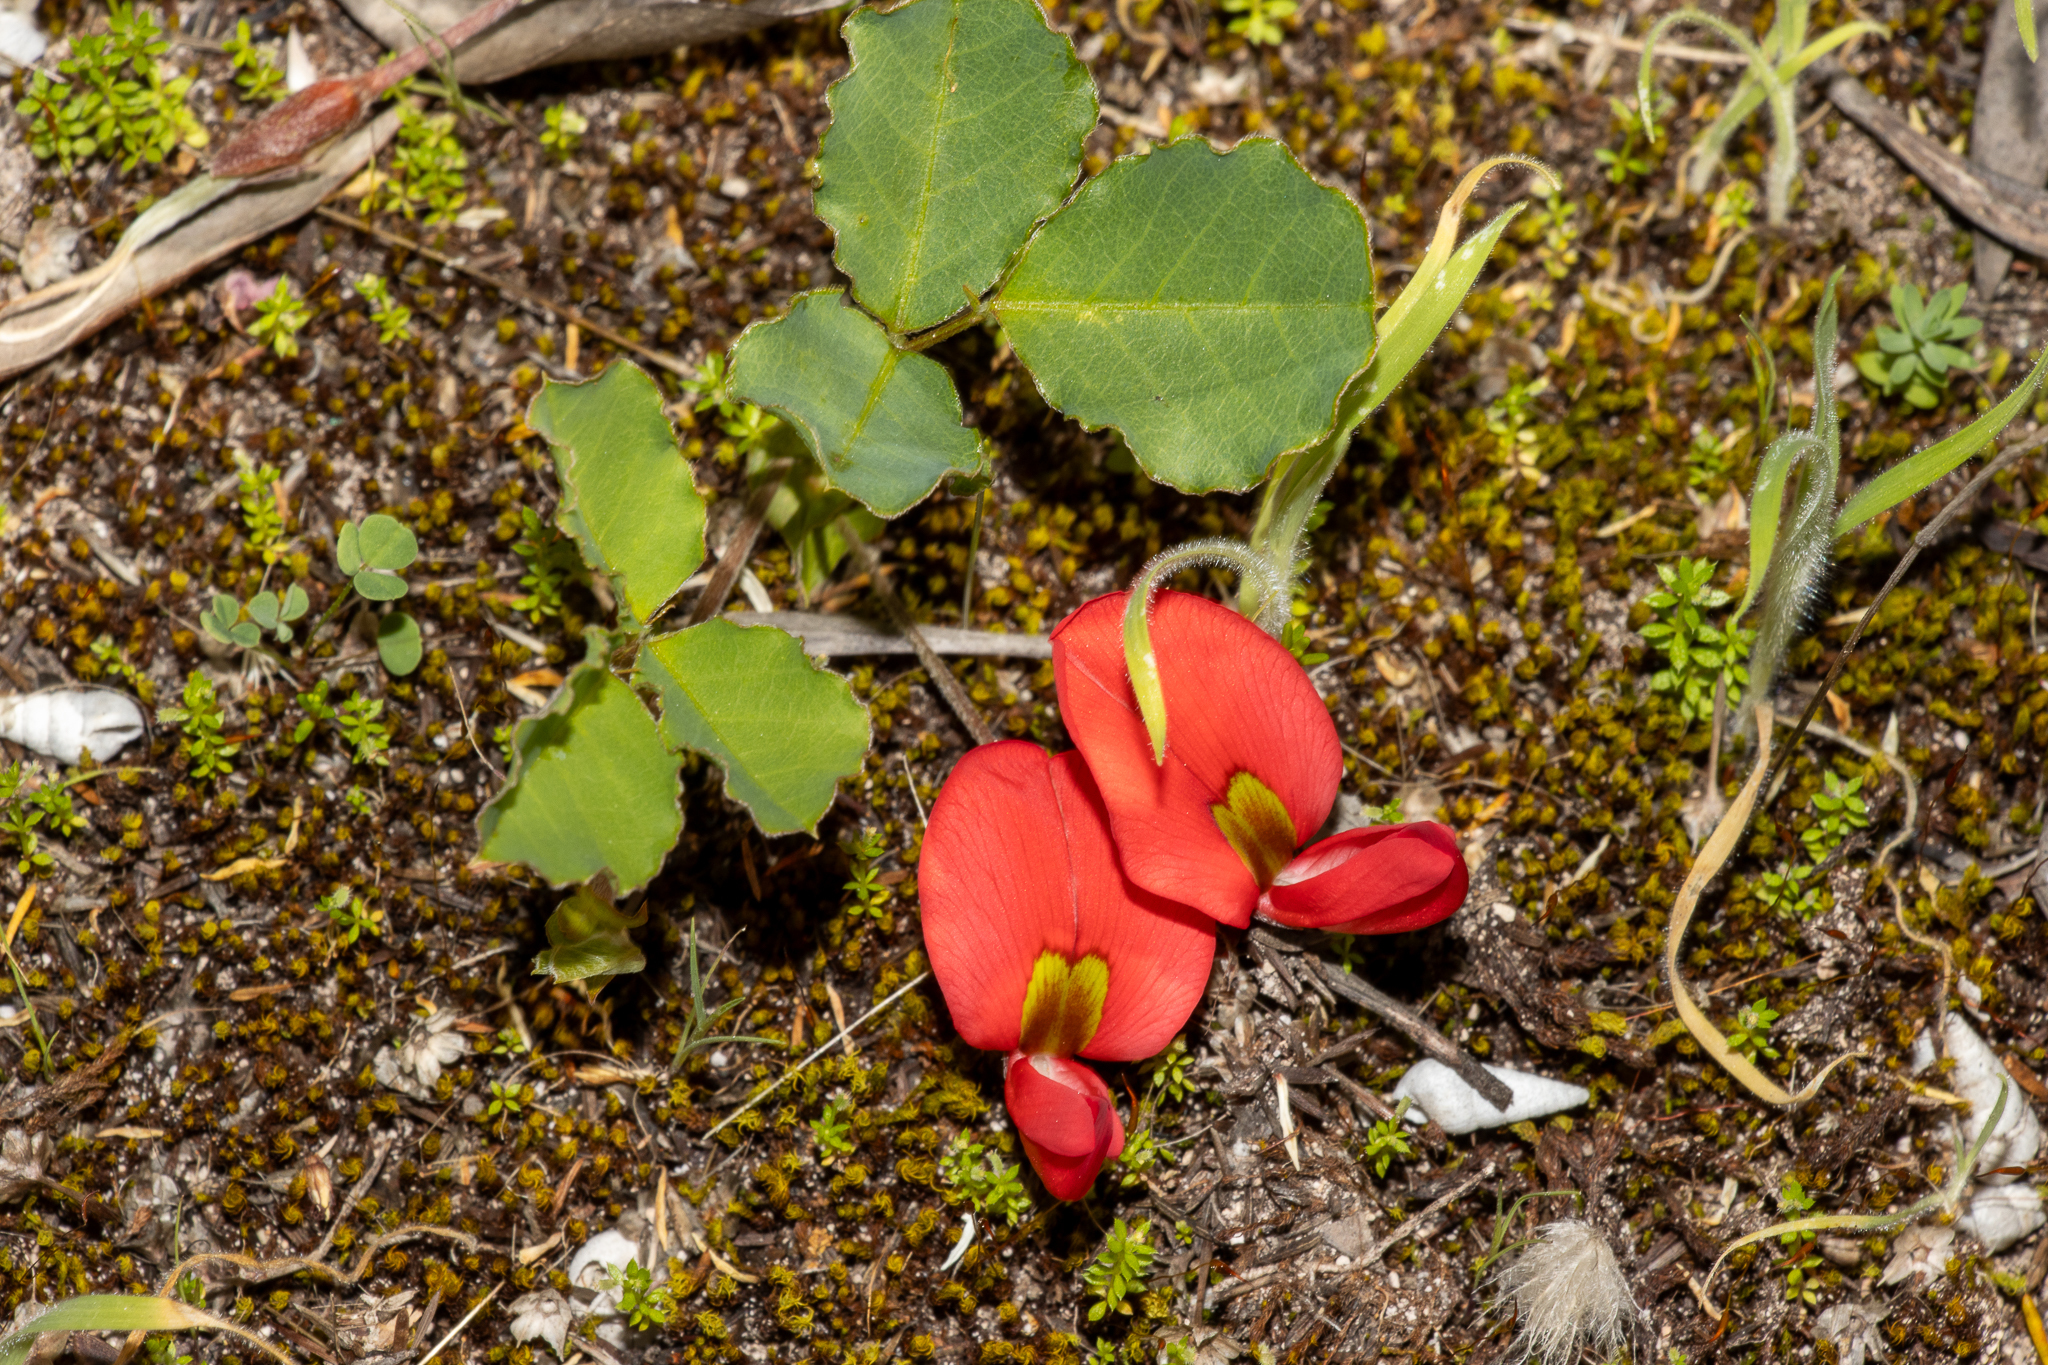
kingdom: Plantae
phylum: Tracheophyta
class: Magnoliopsida
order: Fabales
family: Fabaceae
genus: Kennedia
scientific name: Kennedia prostrata
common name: Running-postman
